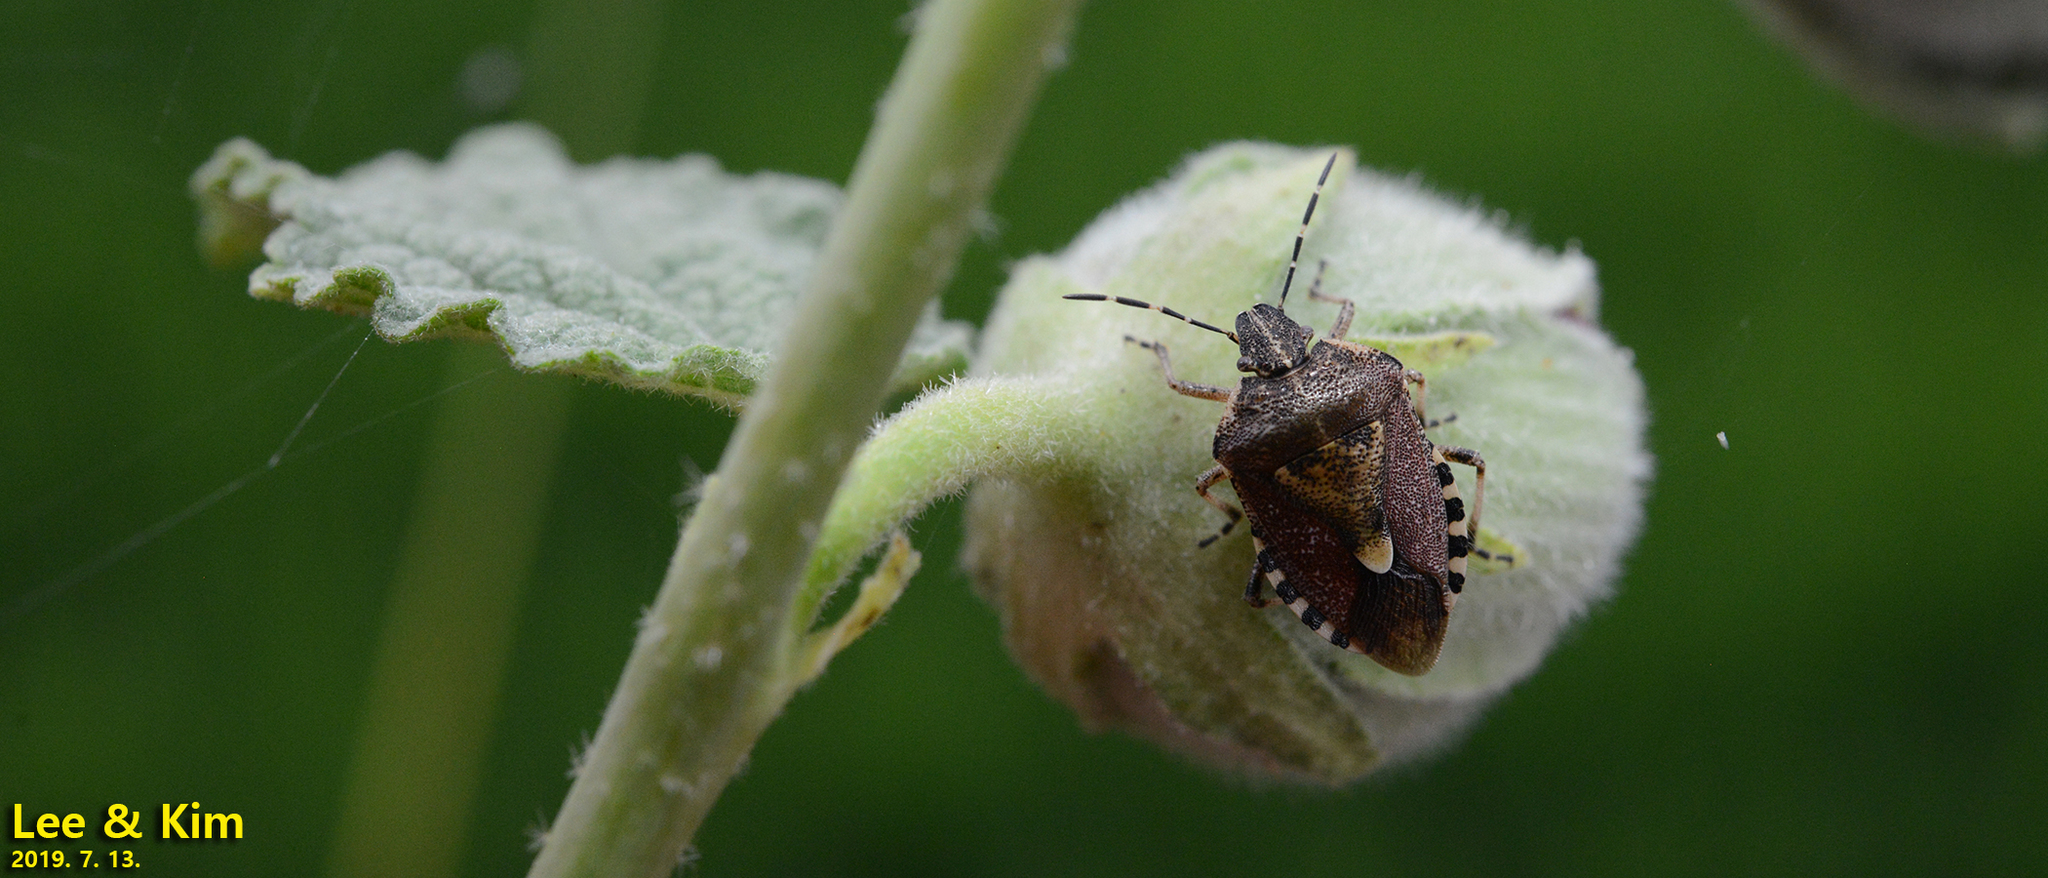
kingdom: Animalia
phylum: Arthropoda
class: Insecta
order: Hemiptera
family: Pentatomidae
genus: Dolycoris
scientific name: Dolycoris baccarum
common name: Sloe bug
